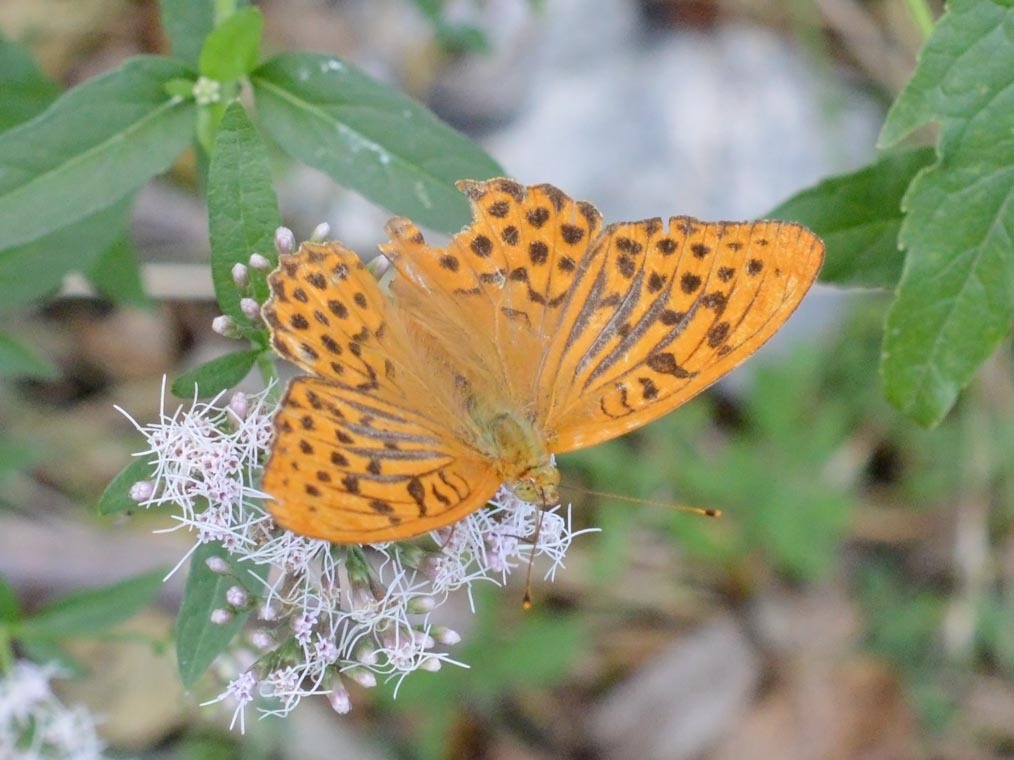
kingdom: Animalia
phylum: Arthropoda
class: Insecta
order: Lepidoptera
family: Nymphalidae
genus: Argynnis
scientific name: Argynnis paphia
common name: Silver-washed fritillary
